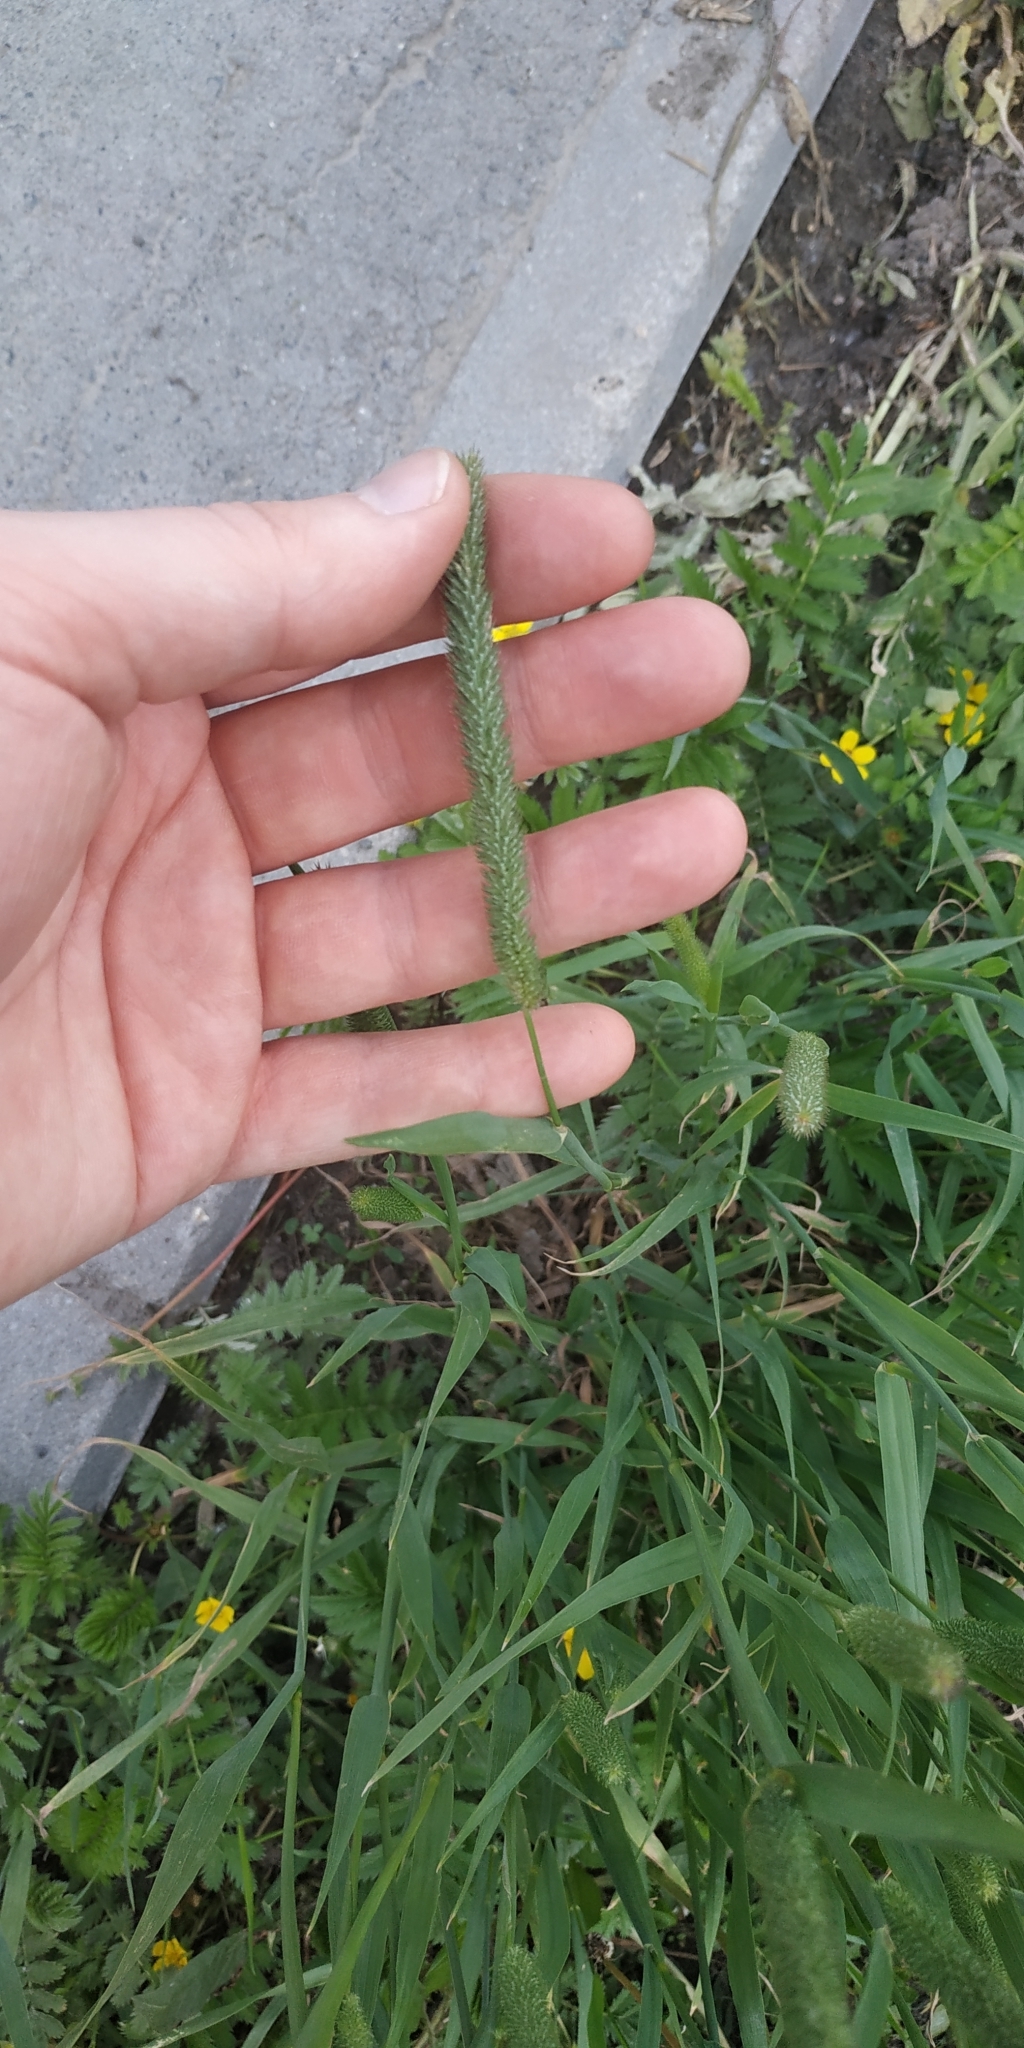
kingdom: Plantae
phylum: Tracheophyta
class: Liliopsida
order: Poales
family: Poaceae
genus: Phleum
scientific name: Phleum pratense
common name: Timothy grass
